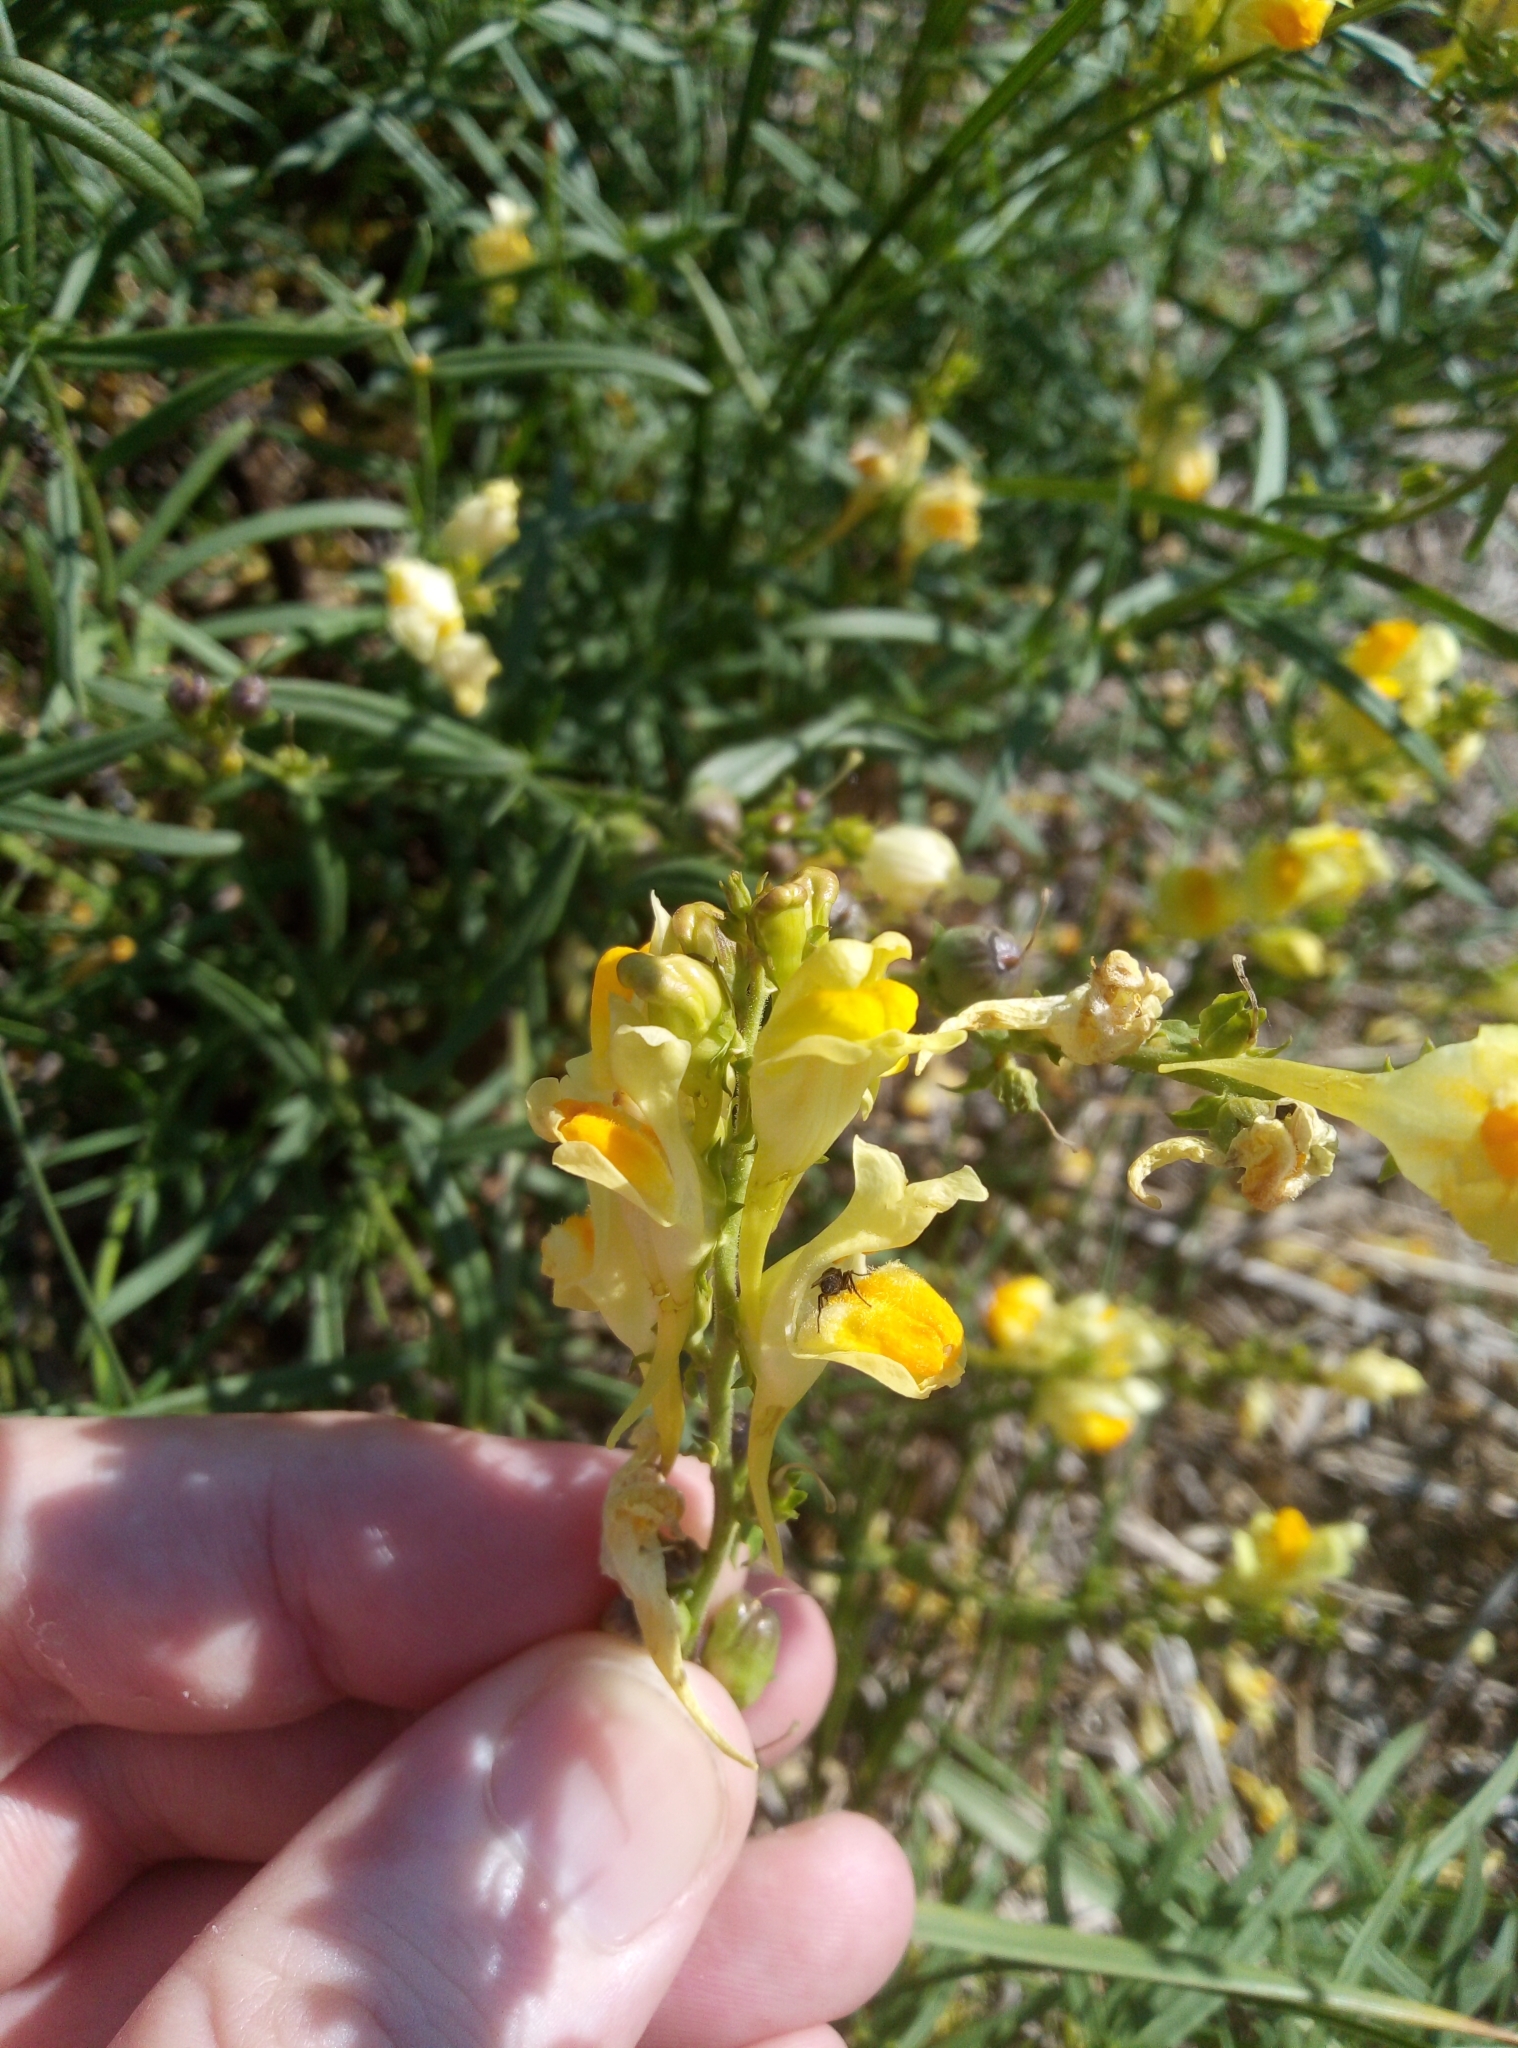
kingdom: Plantae
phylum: Tracheophyta
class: Magnoliopsida
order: Lamiales
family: Plantaginaceae
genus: Linaria
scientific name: Linaria vulgaris
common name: Butter and eggs
